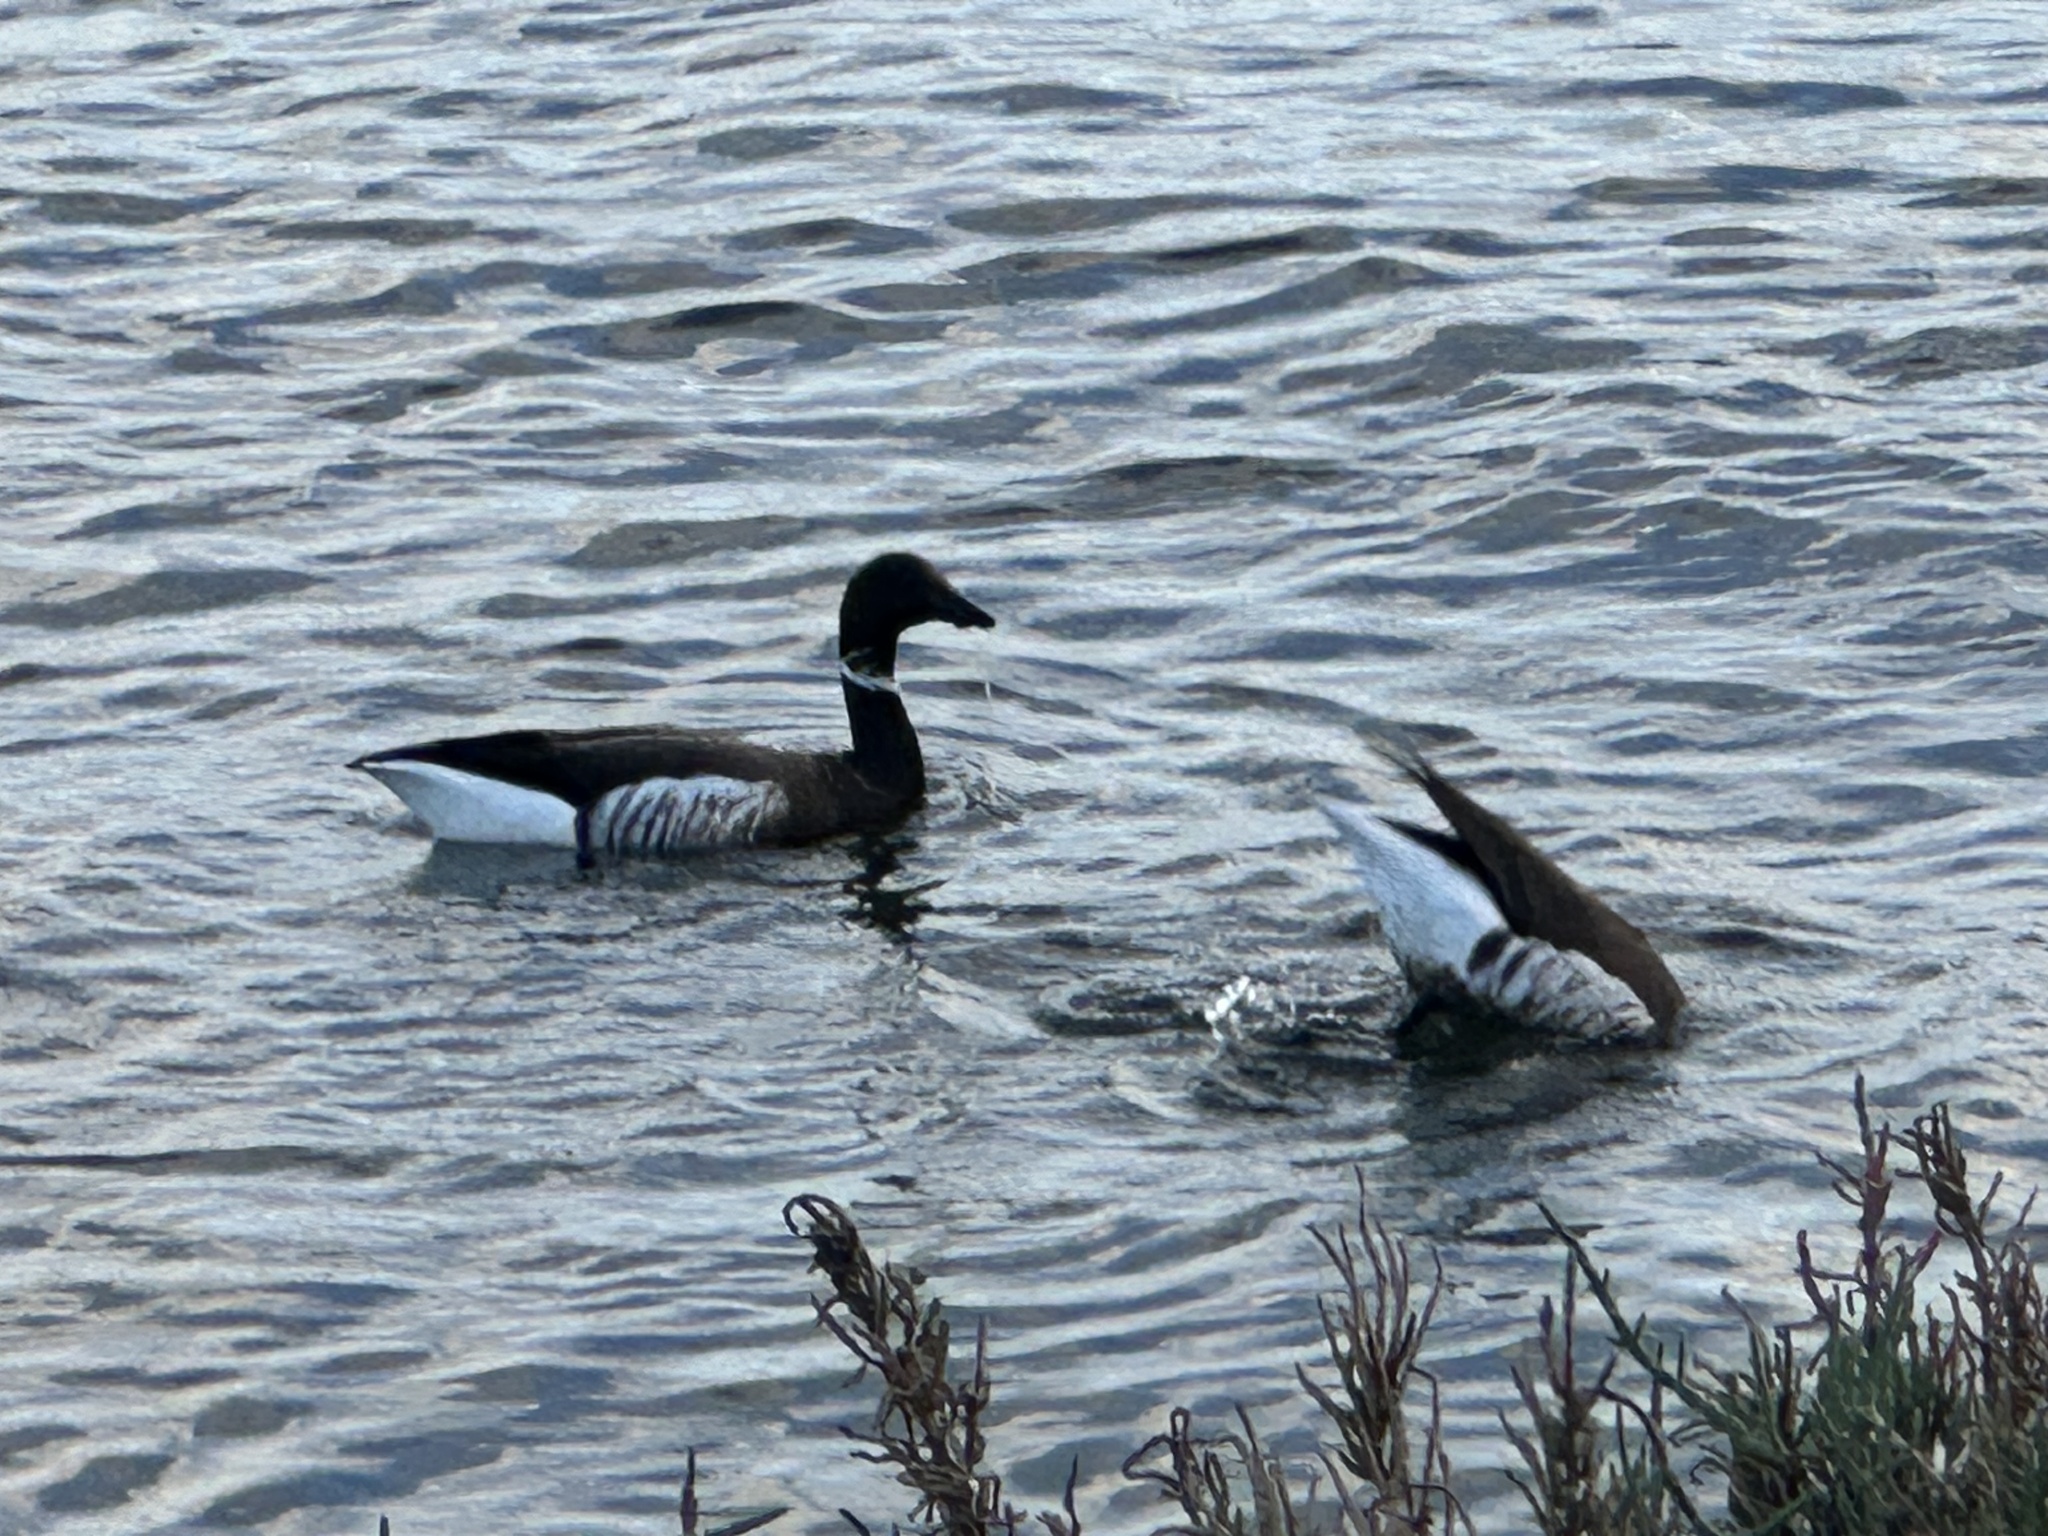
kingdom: Animalia
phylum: Chordata
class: Aves
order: Anseriformes
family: Anatidae
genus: Branta
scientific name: Branta bernicla
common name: Brant goose
